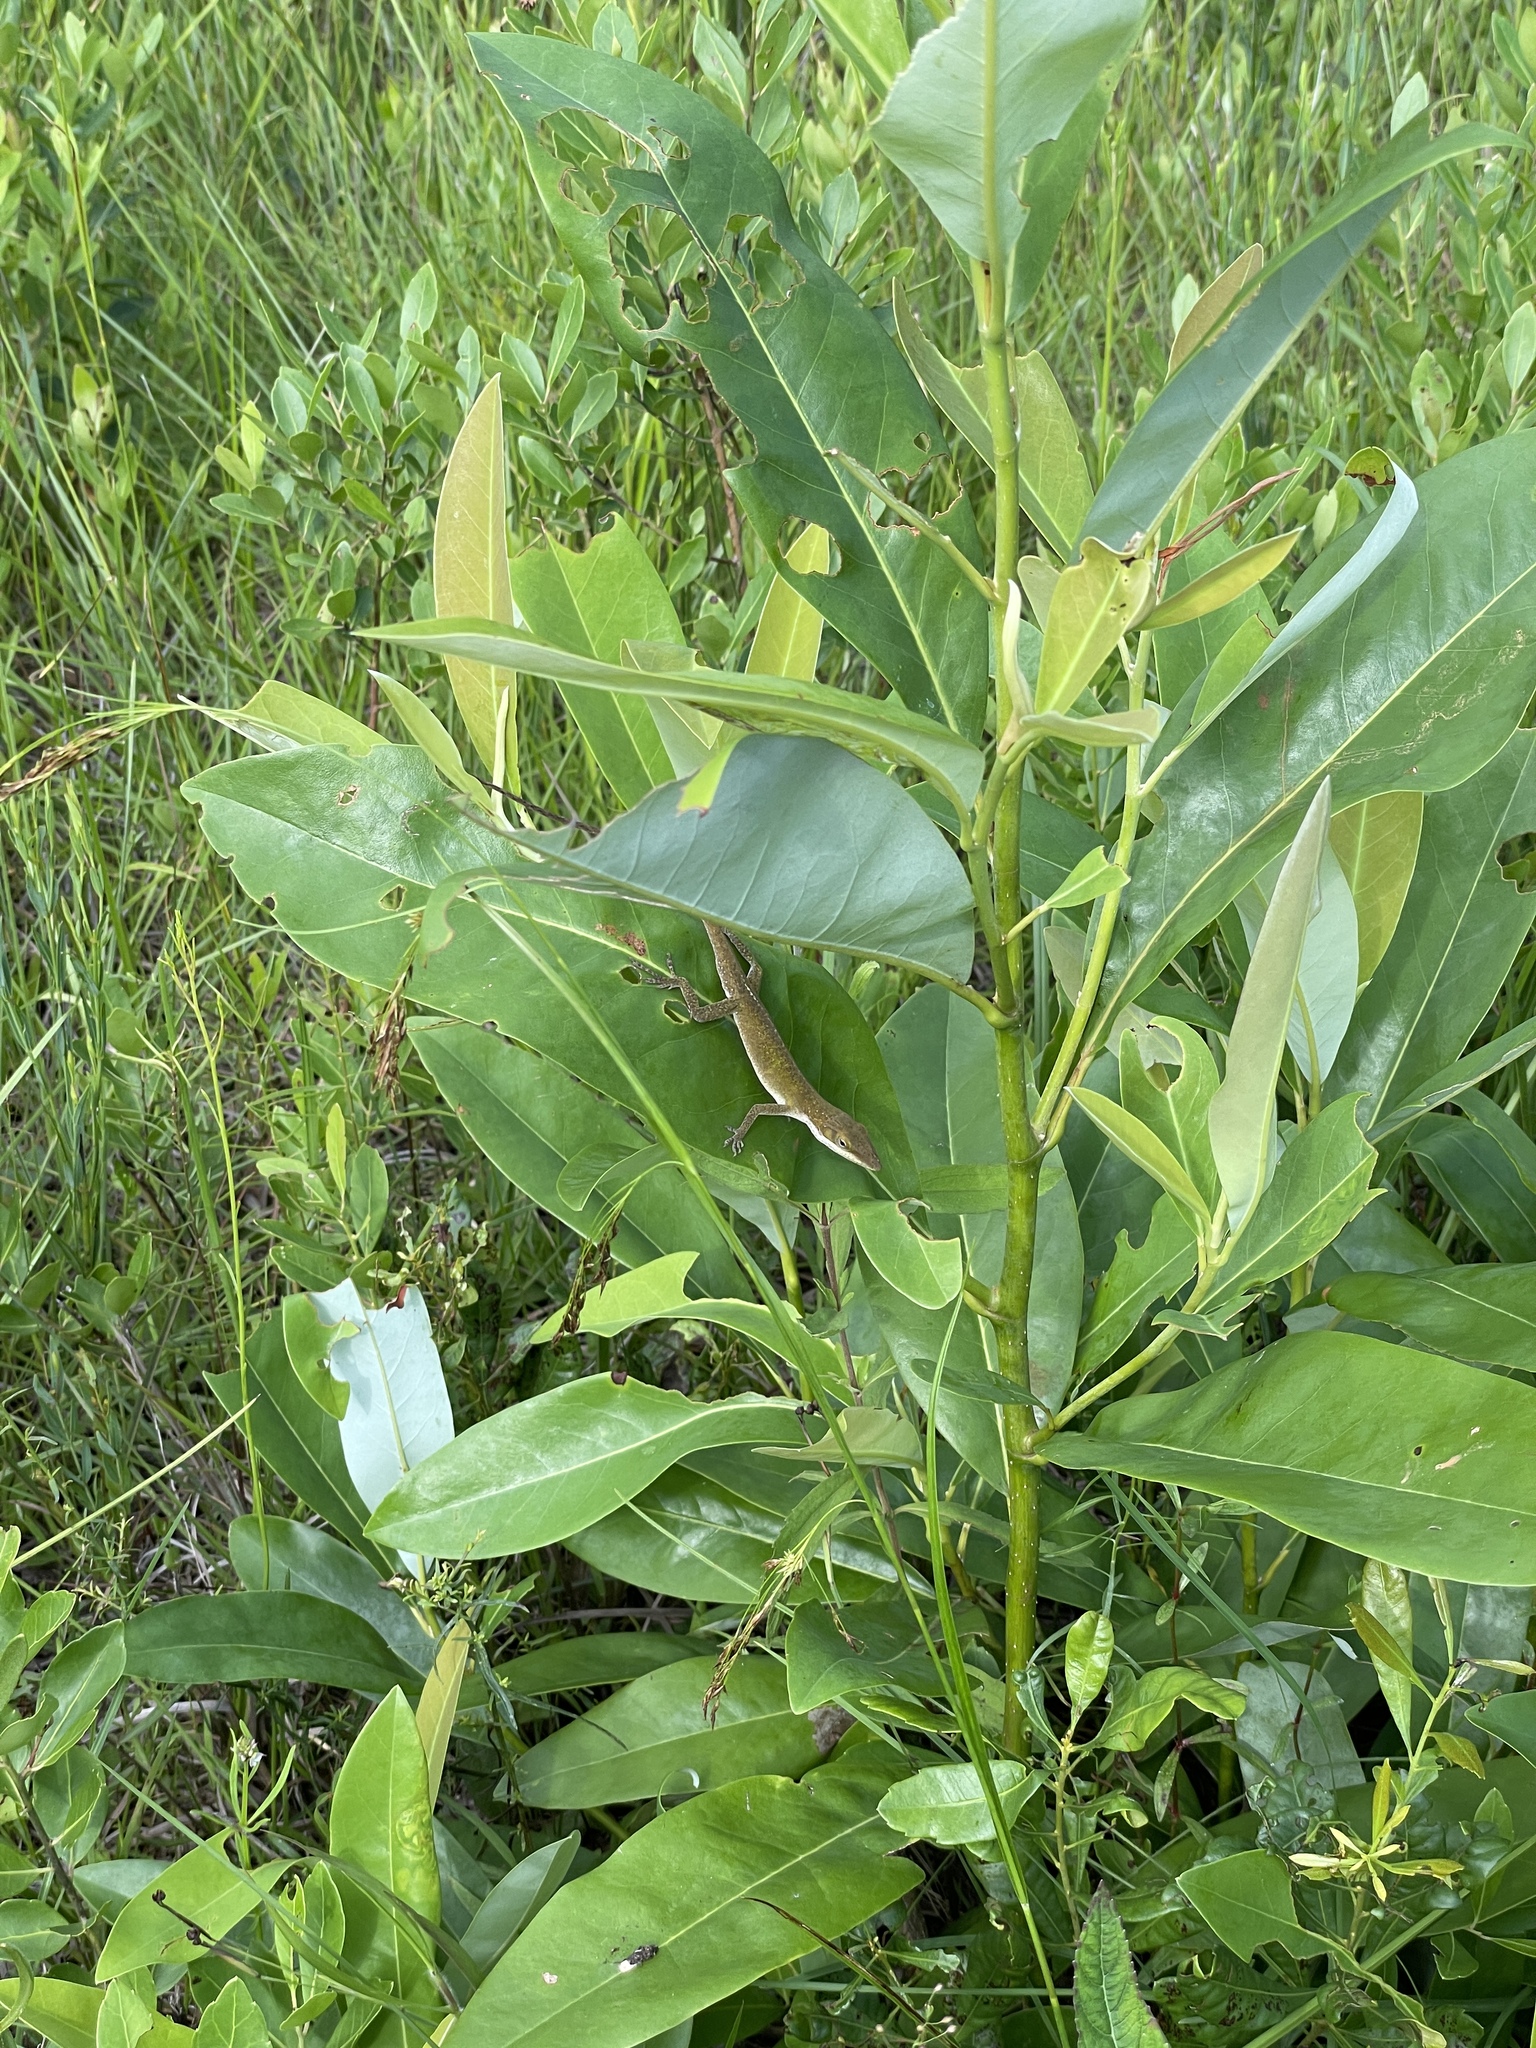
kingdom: Animalia
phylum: Chordata
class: Squamata
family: Dactyloidae
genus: Anolis
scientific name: Anolis carolinensis
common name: Green anole
